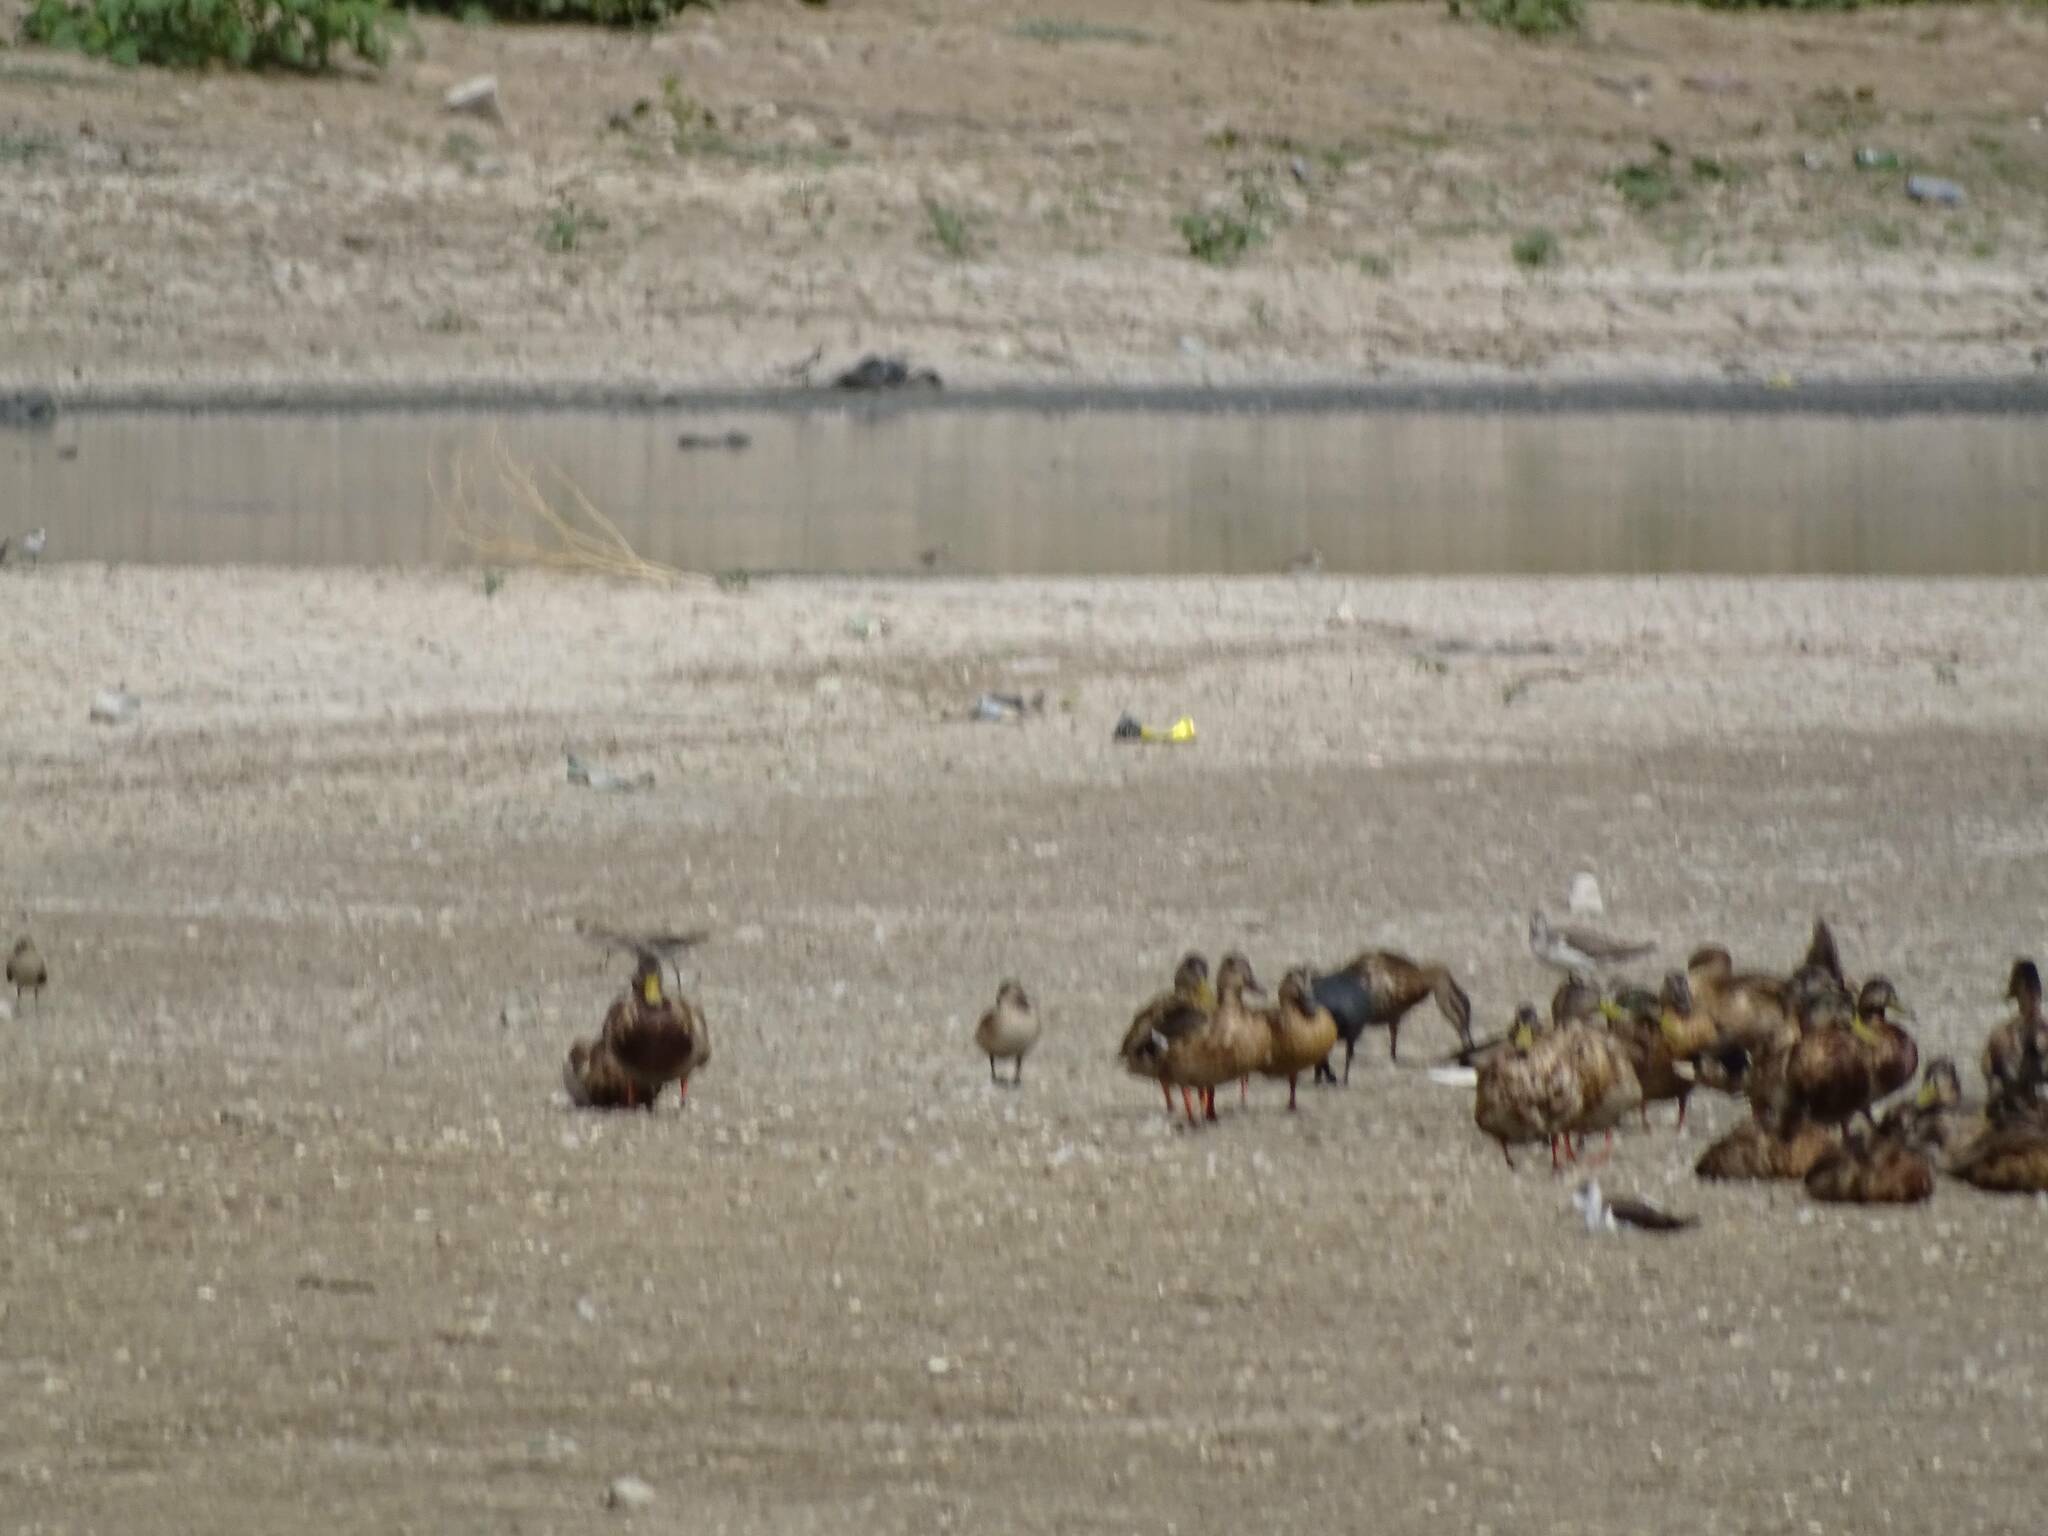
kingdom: Animalia
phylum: Chordata
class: Aves
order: Anseriformes
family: Anatidae
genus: Anas
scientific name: Anas platyrhynchos
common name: Mallard
